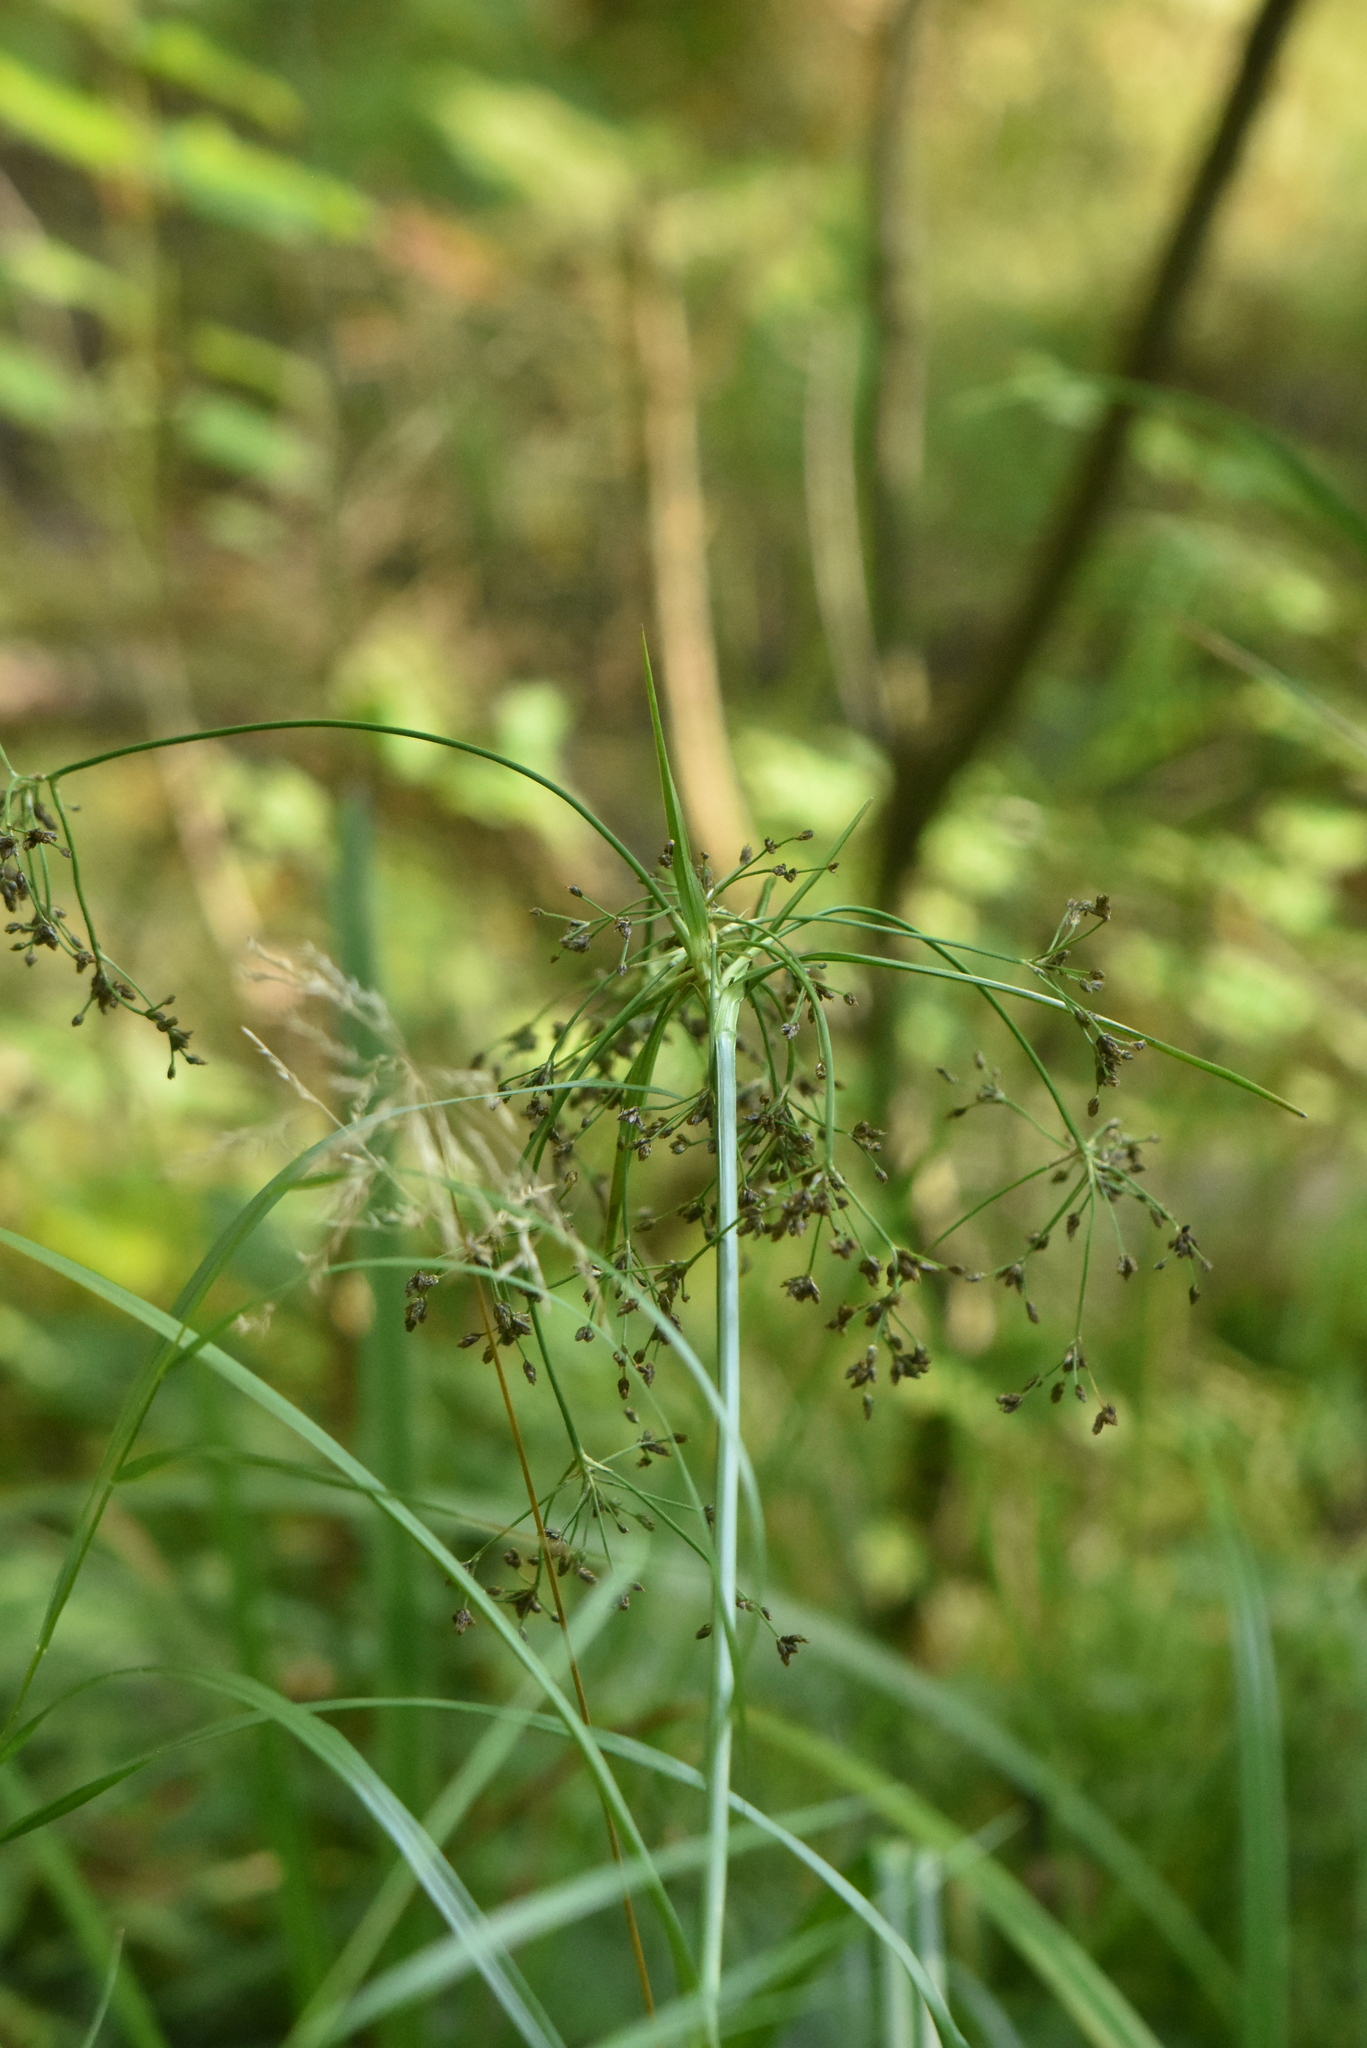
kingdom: Plantae
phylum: Tracheophyta
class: Liliopsida
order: Poales
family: Cyperaceae
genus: Scirpus
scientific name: Scirpus sylvaticus
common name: Wood club-rush
